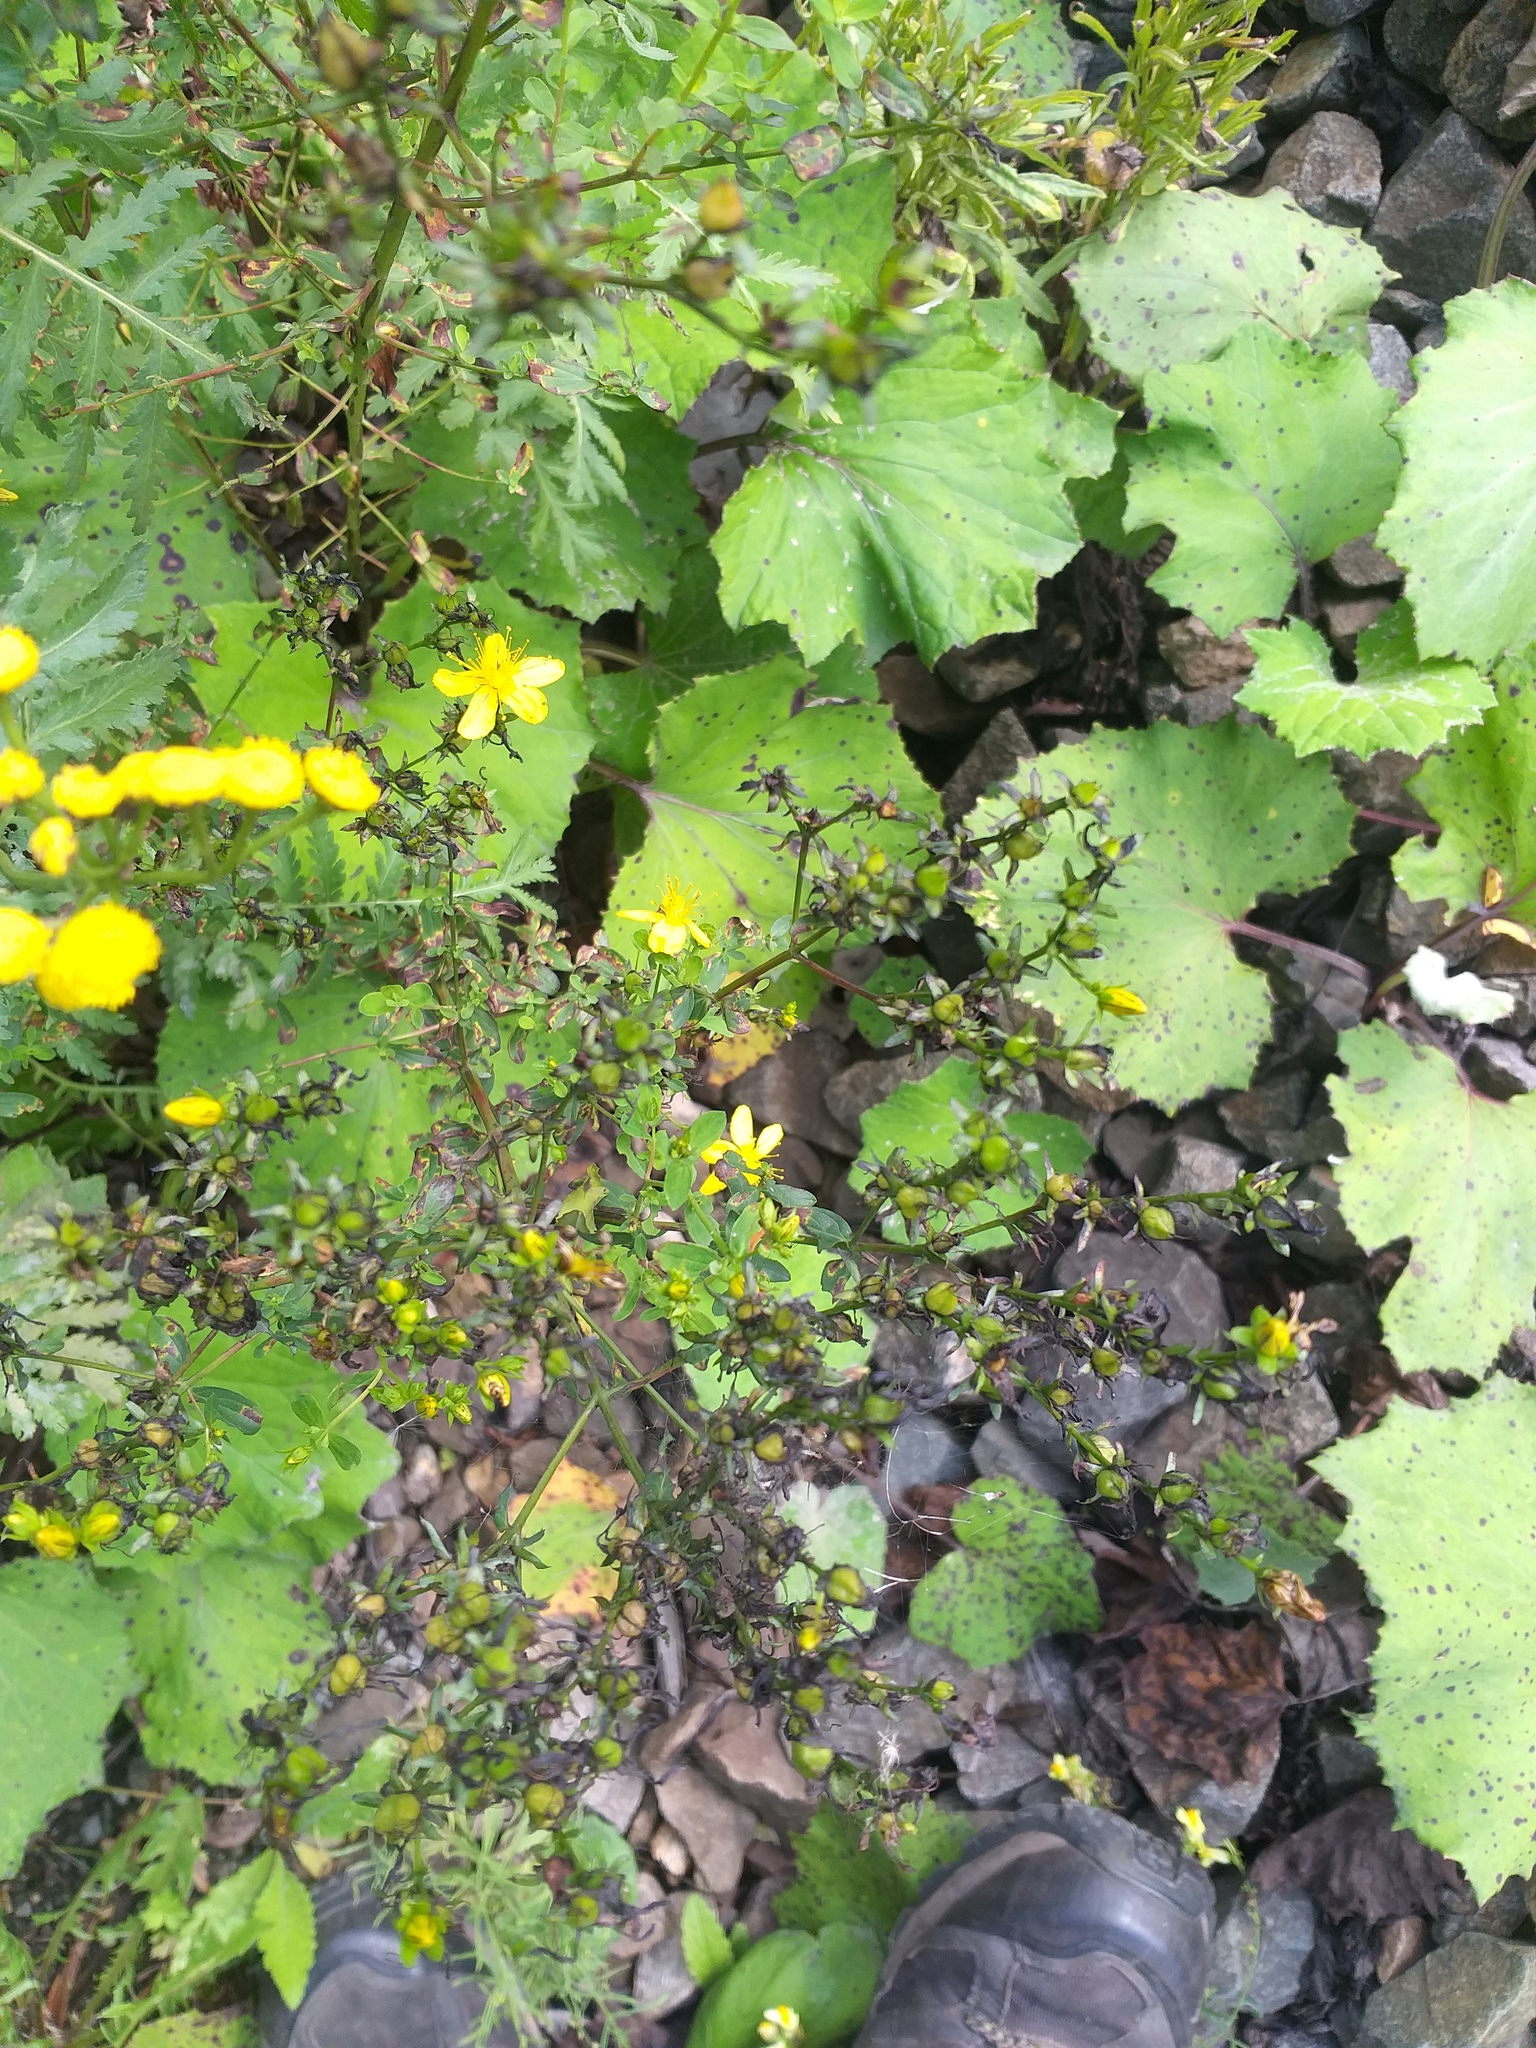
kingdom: Plantae
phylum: Tracheophyta
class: Magnoliopsida
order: Malpighiales
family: Hypericaceae
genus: Hypericum
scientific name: Hypericum perforatum
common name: Common st. johnswort
